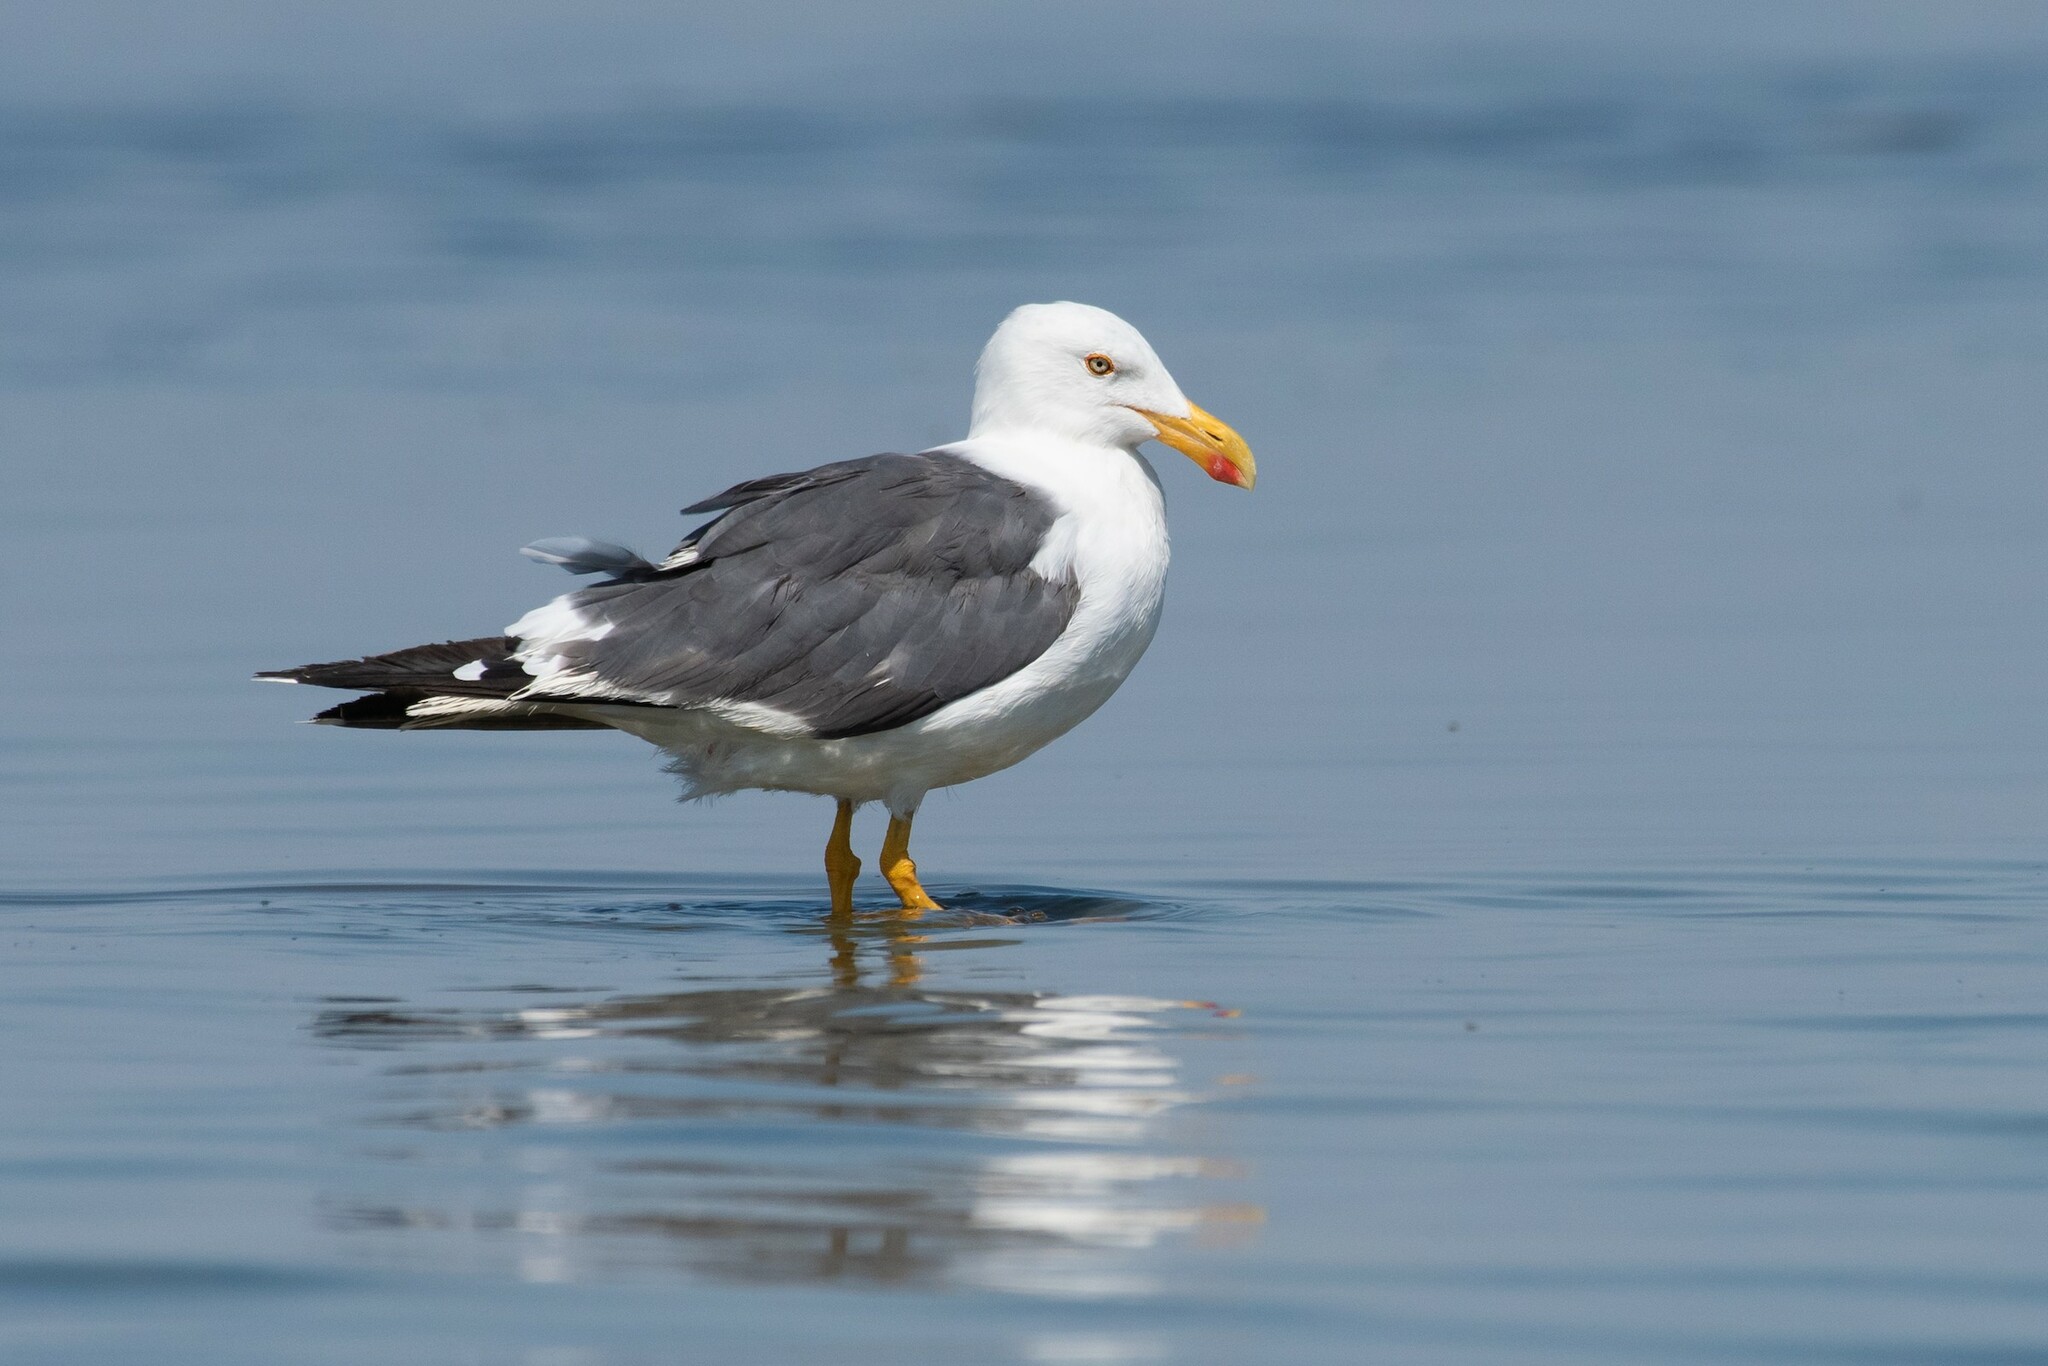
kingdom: Animalia
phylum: Chordata
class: Aves
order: Charadriiformes
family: Laridae
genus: Larus
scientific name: Larus livens
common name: Yellow-footed gull
